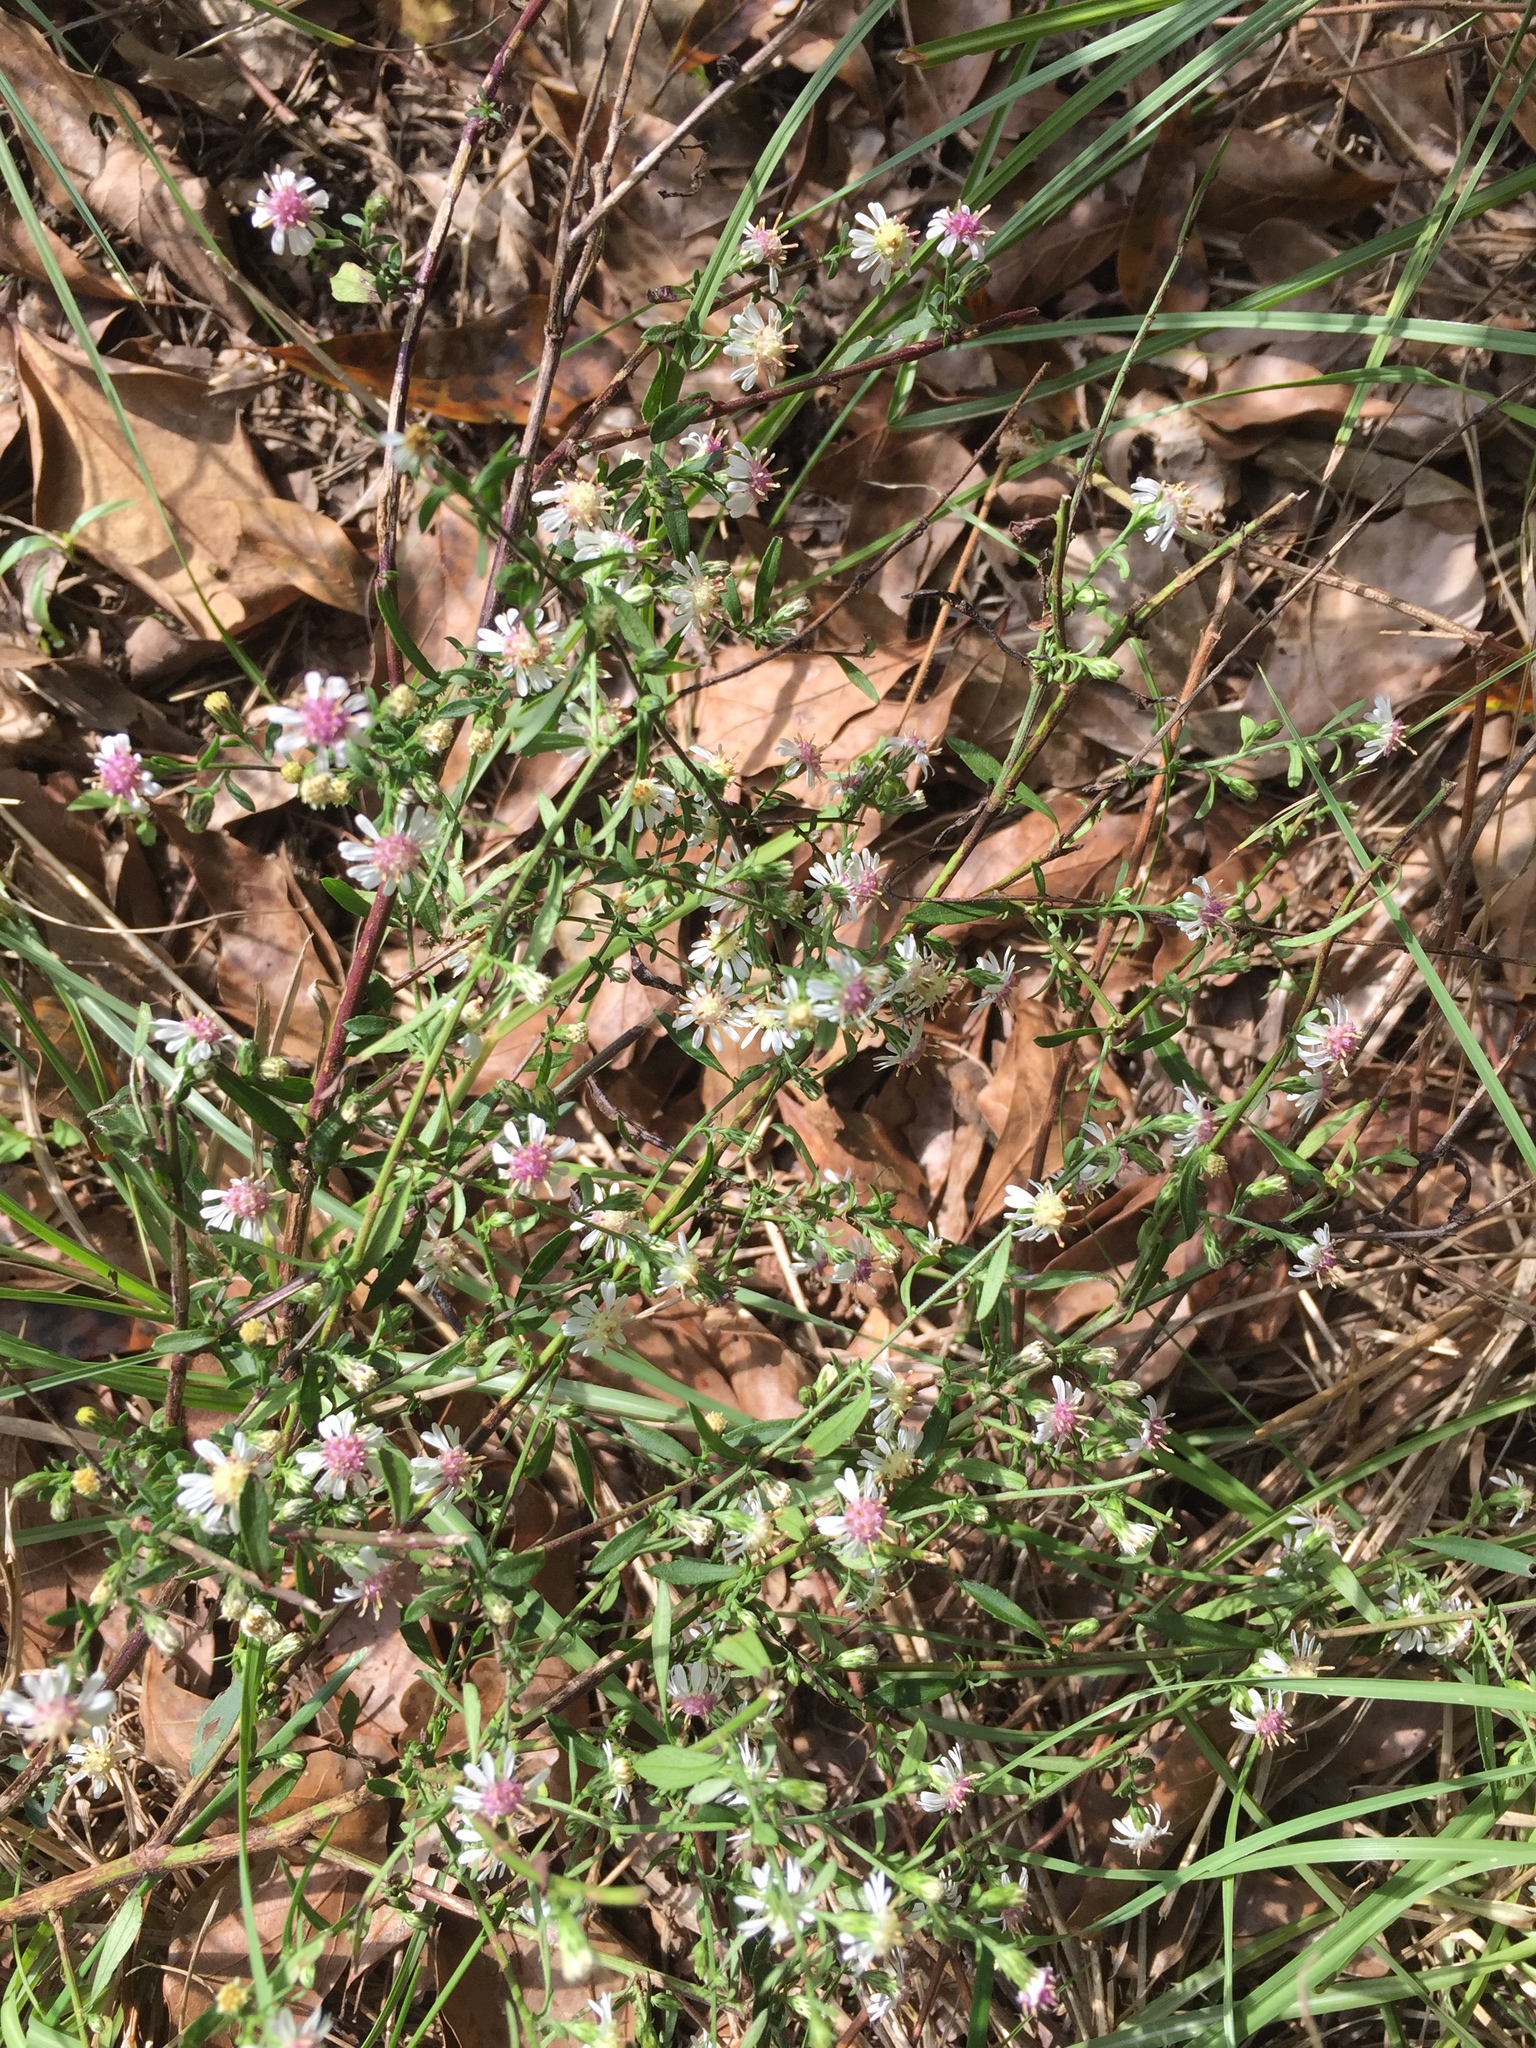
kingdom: Plantae
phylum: Tracheophyta
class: Magnoliopsida
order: Asterales
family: Asteraceae
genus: Symphyotrichum
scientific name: Symphyotrichum lateriflorum
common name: Calico aster
